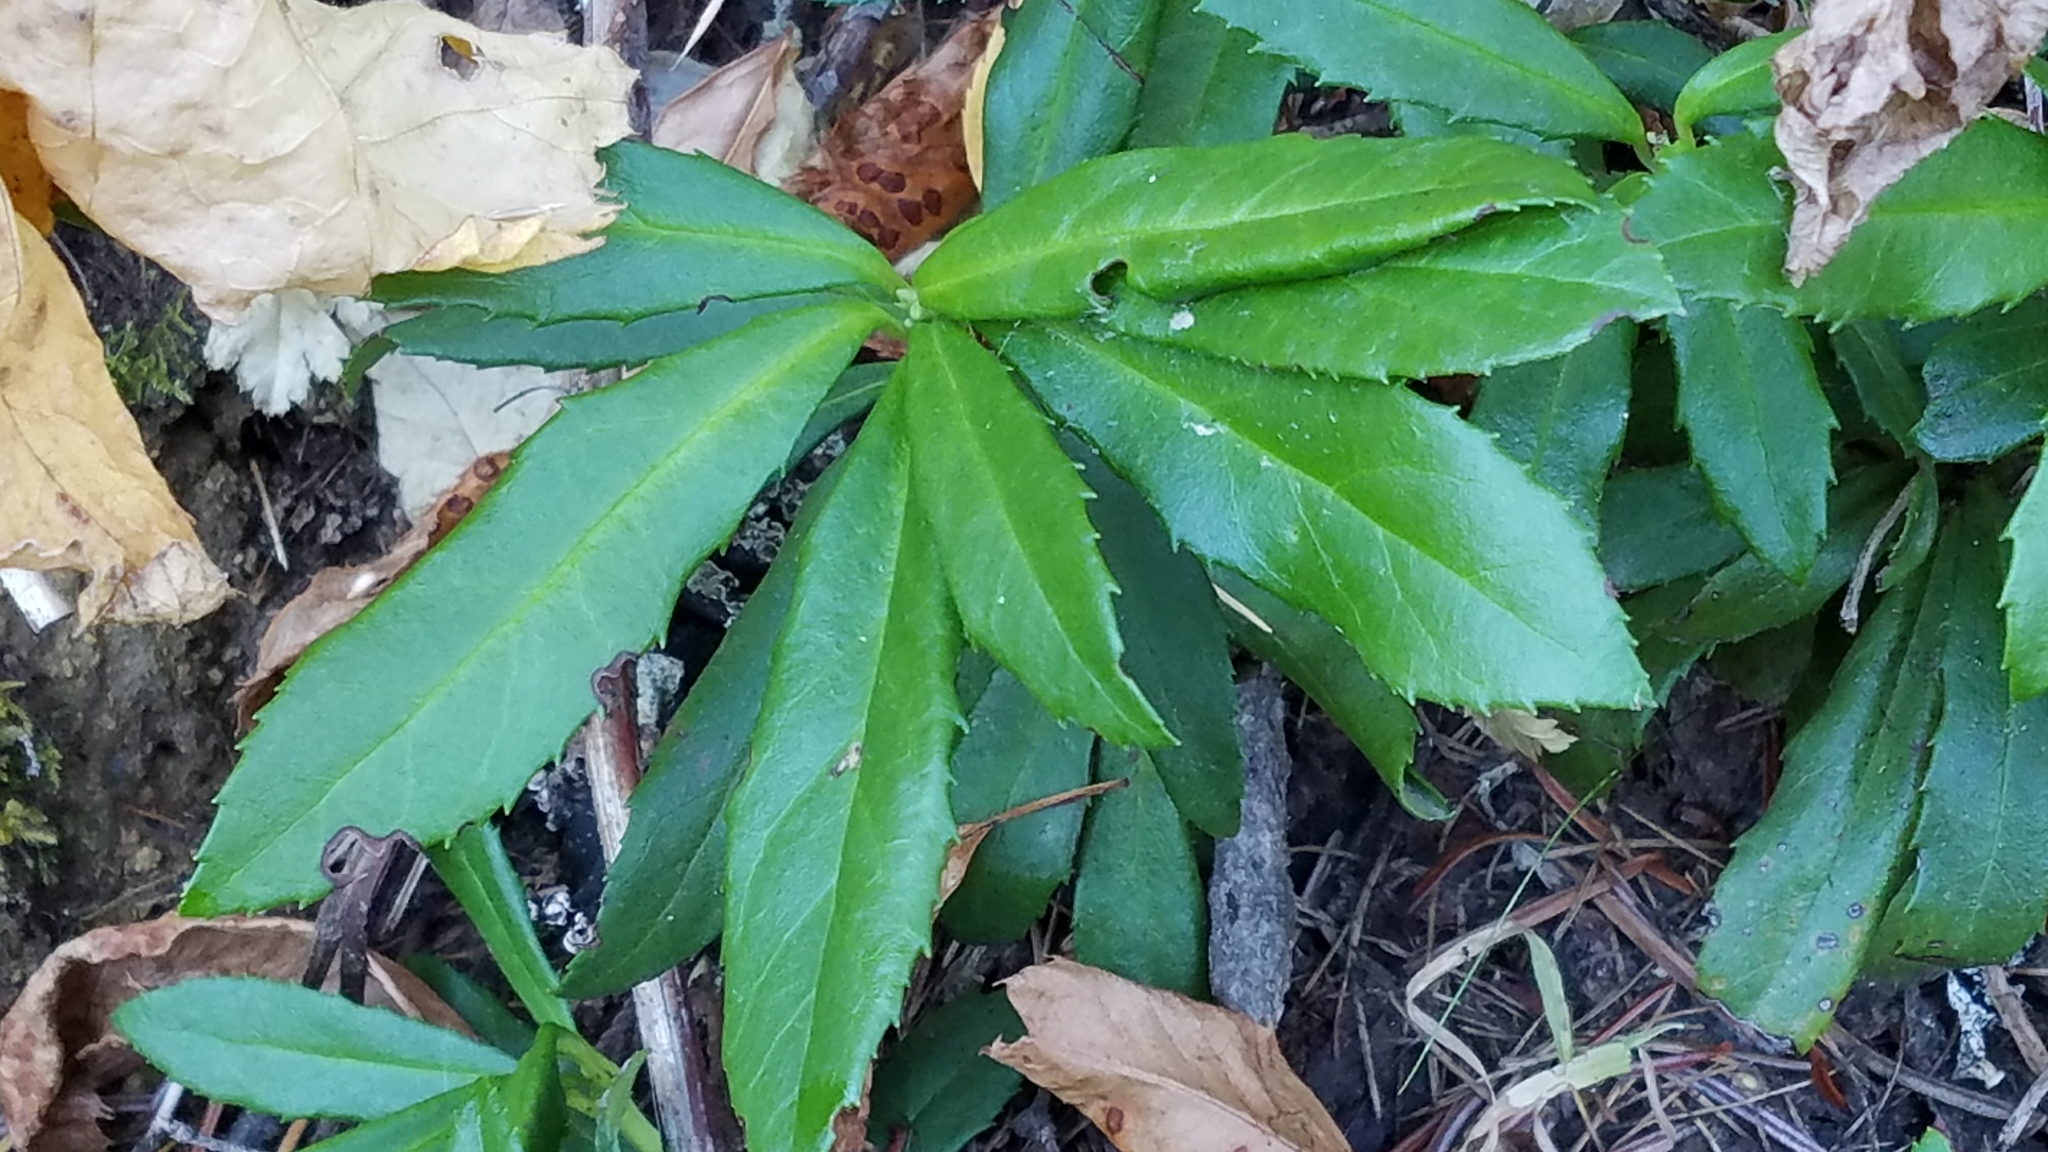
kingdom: Plantae
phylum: Tracheophyta
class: Magnoliopsida
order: Ericales
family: Ericaceae
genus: Chimaphila
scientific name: Chimaphila umbellata
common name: Pipsissewa
